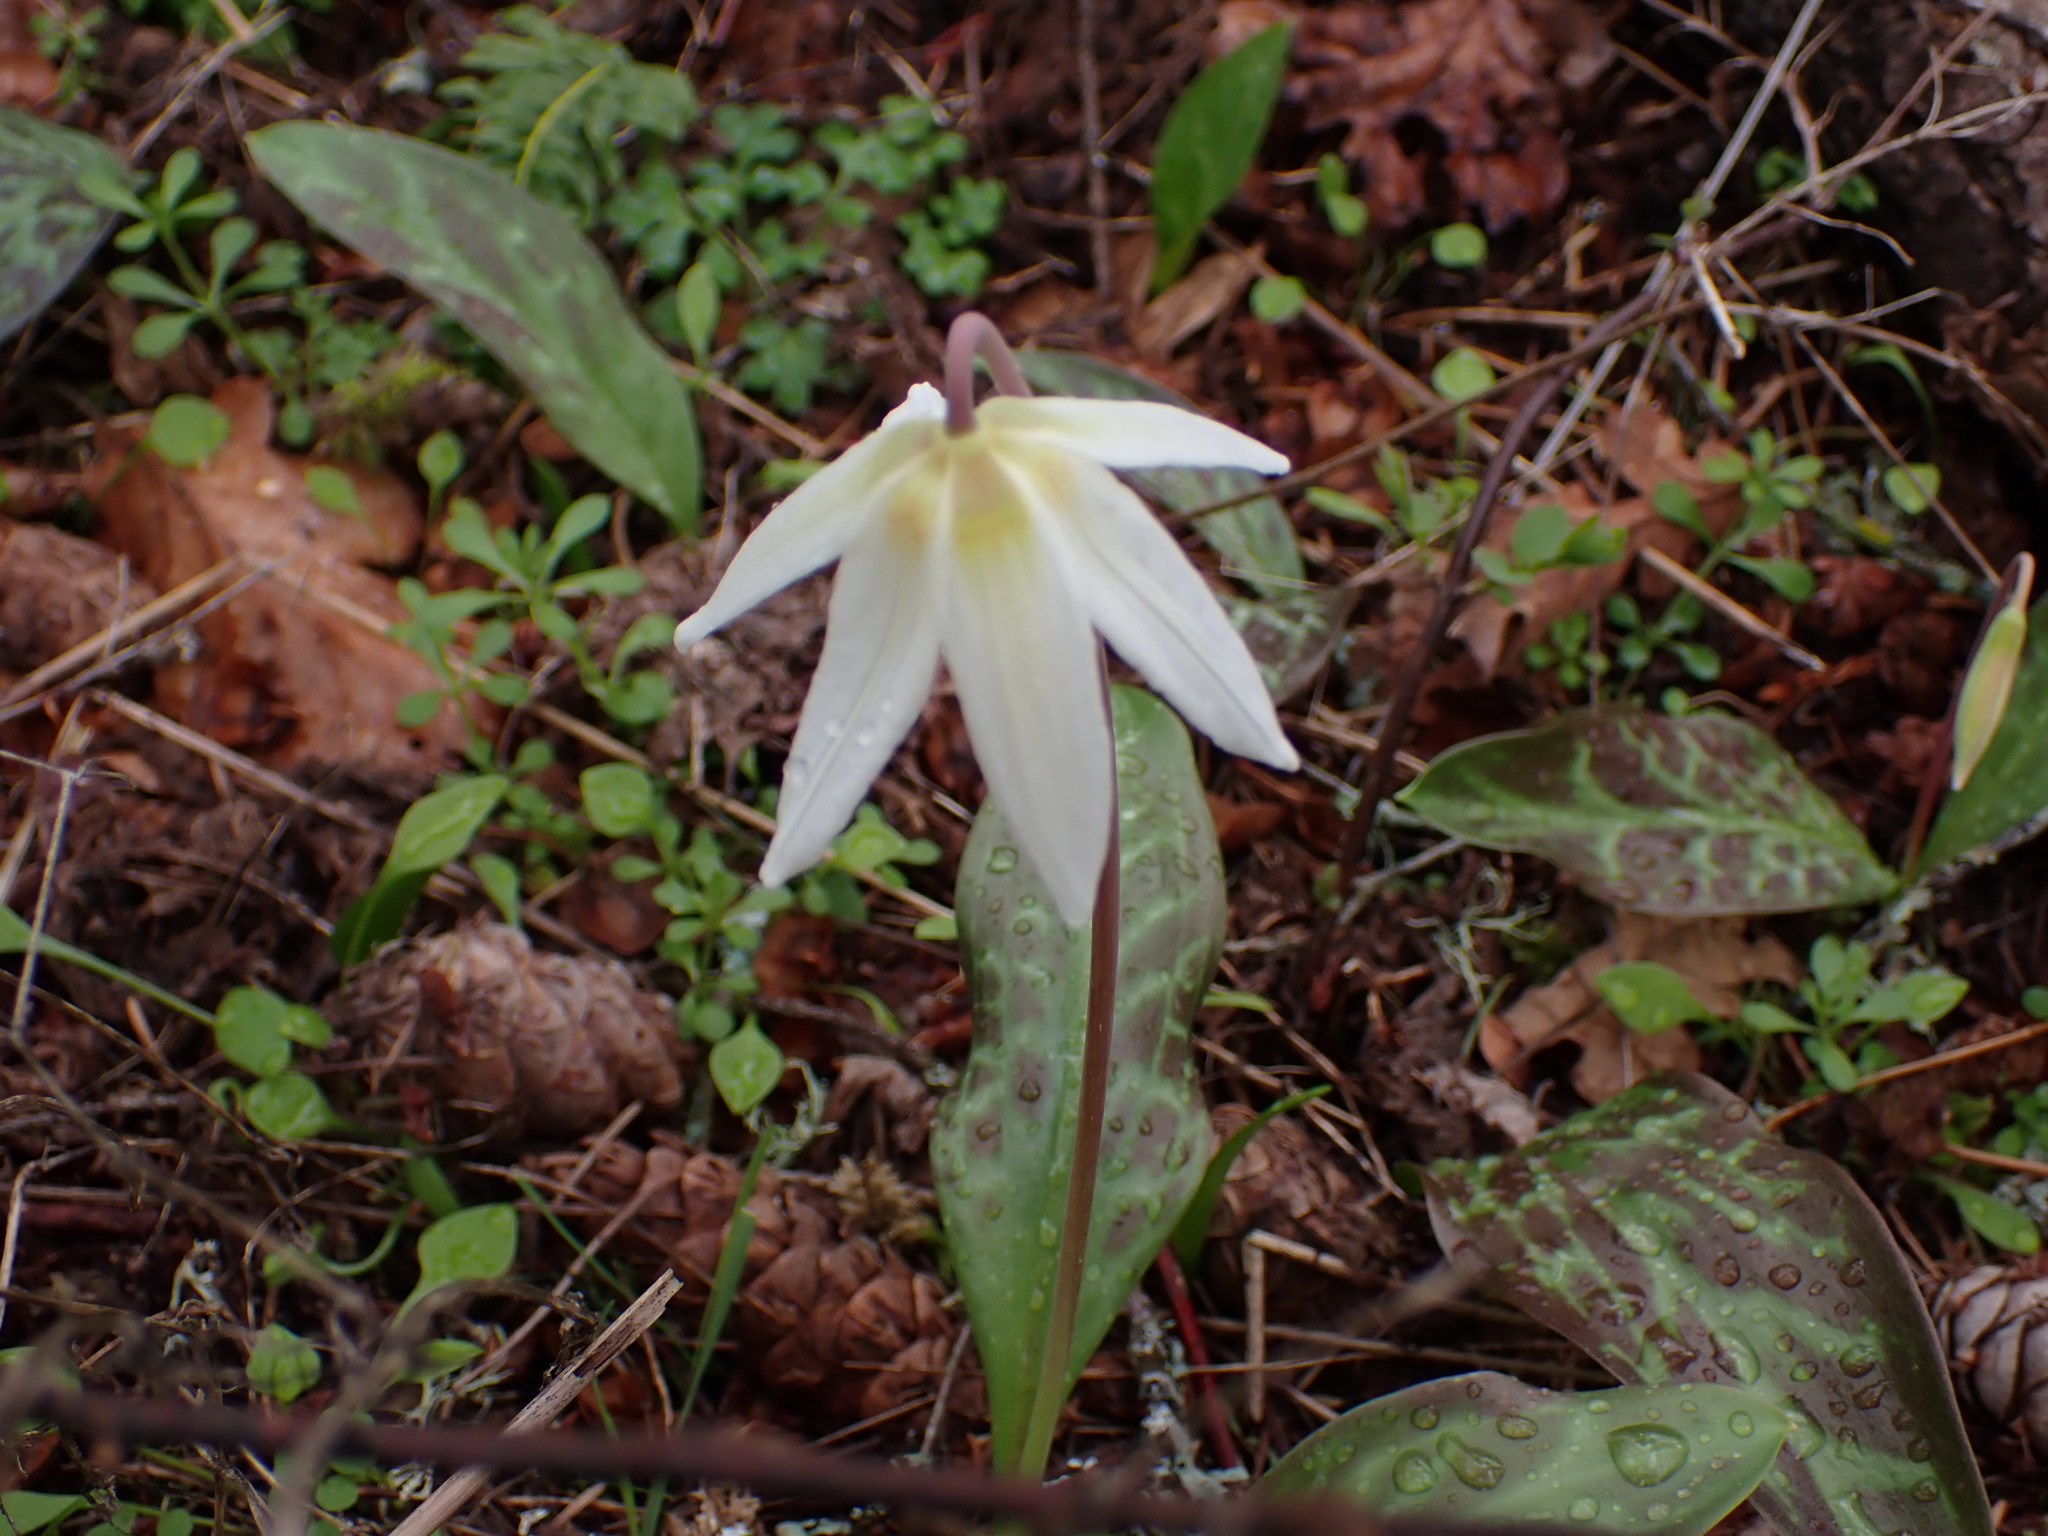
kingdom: Plantae
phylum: Tracheophyta
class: Liliopsida
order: Liliales
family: Liliaceae
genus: Erythronium
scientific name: Erythronium oregonum
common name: Giant adder's-tongue
